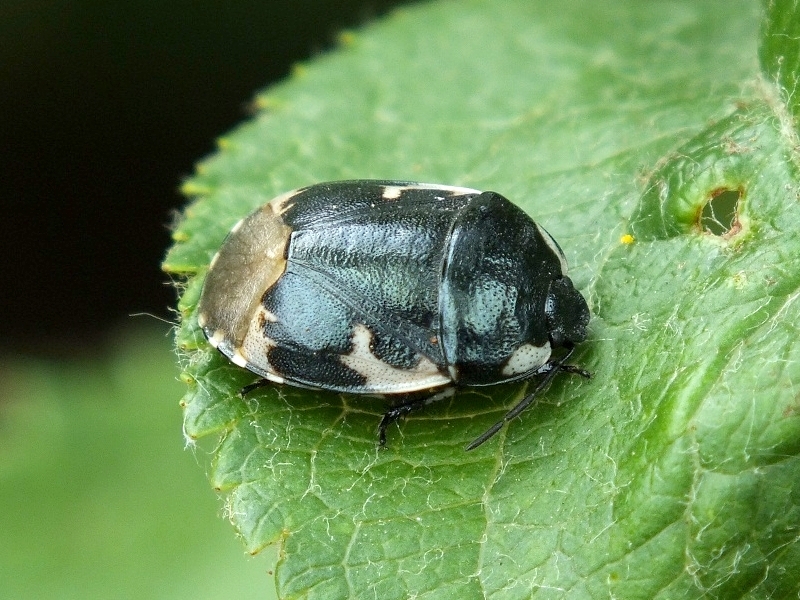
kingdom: Animalia
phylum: Arthropoda
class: Insecta
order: Hemiptera
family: Cydnidae
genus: Tritomegas
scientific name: Tritomegas bicolor
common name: Pied shieldbug
